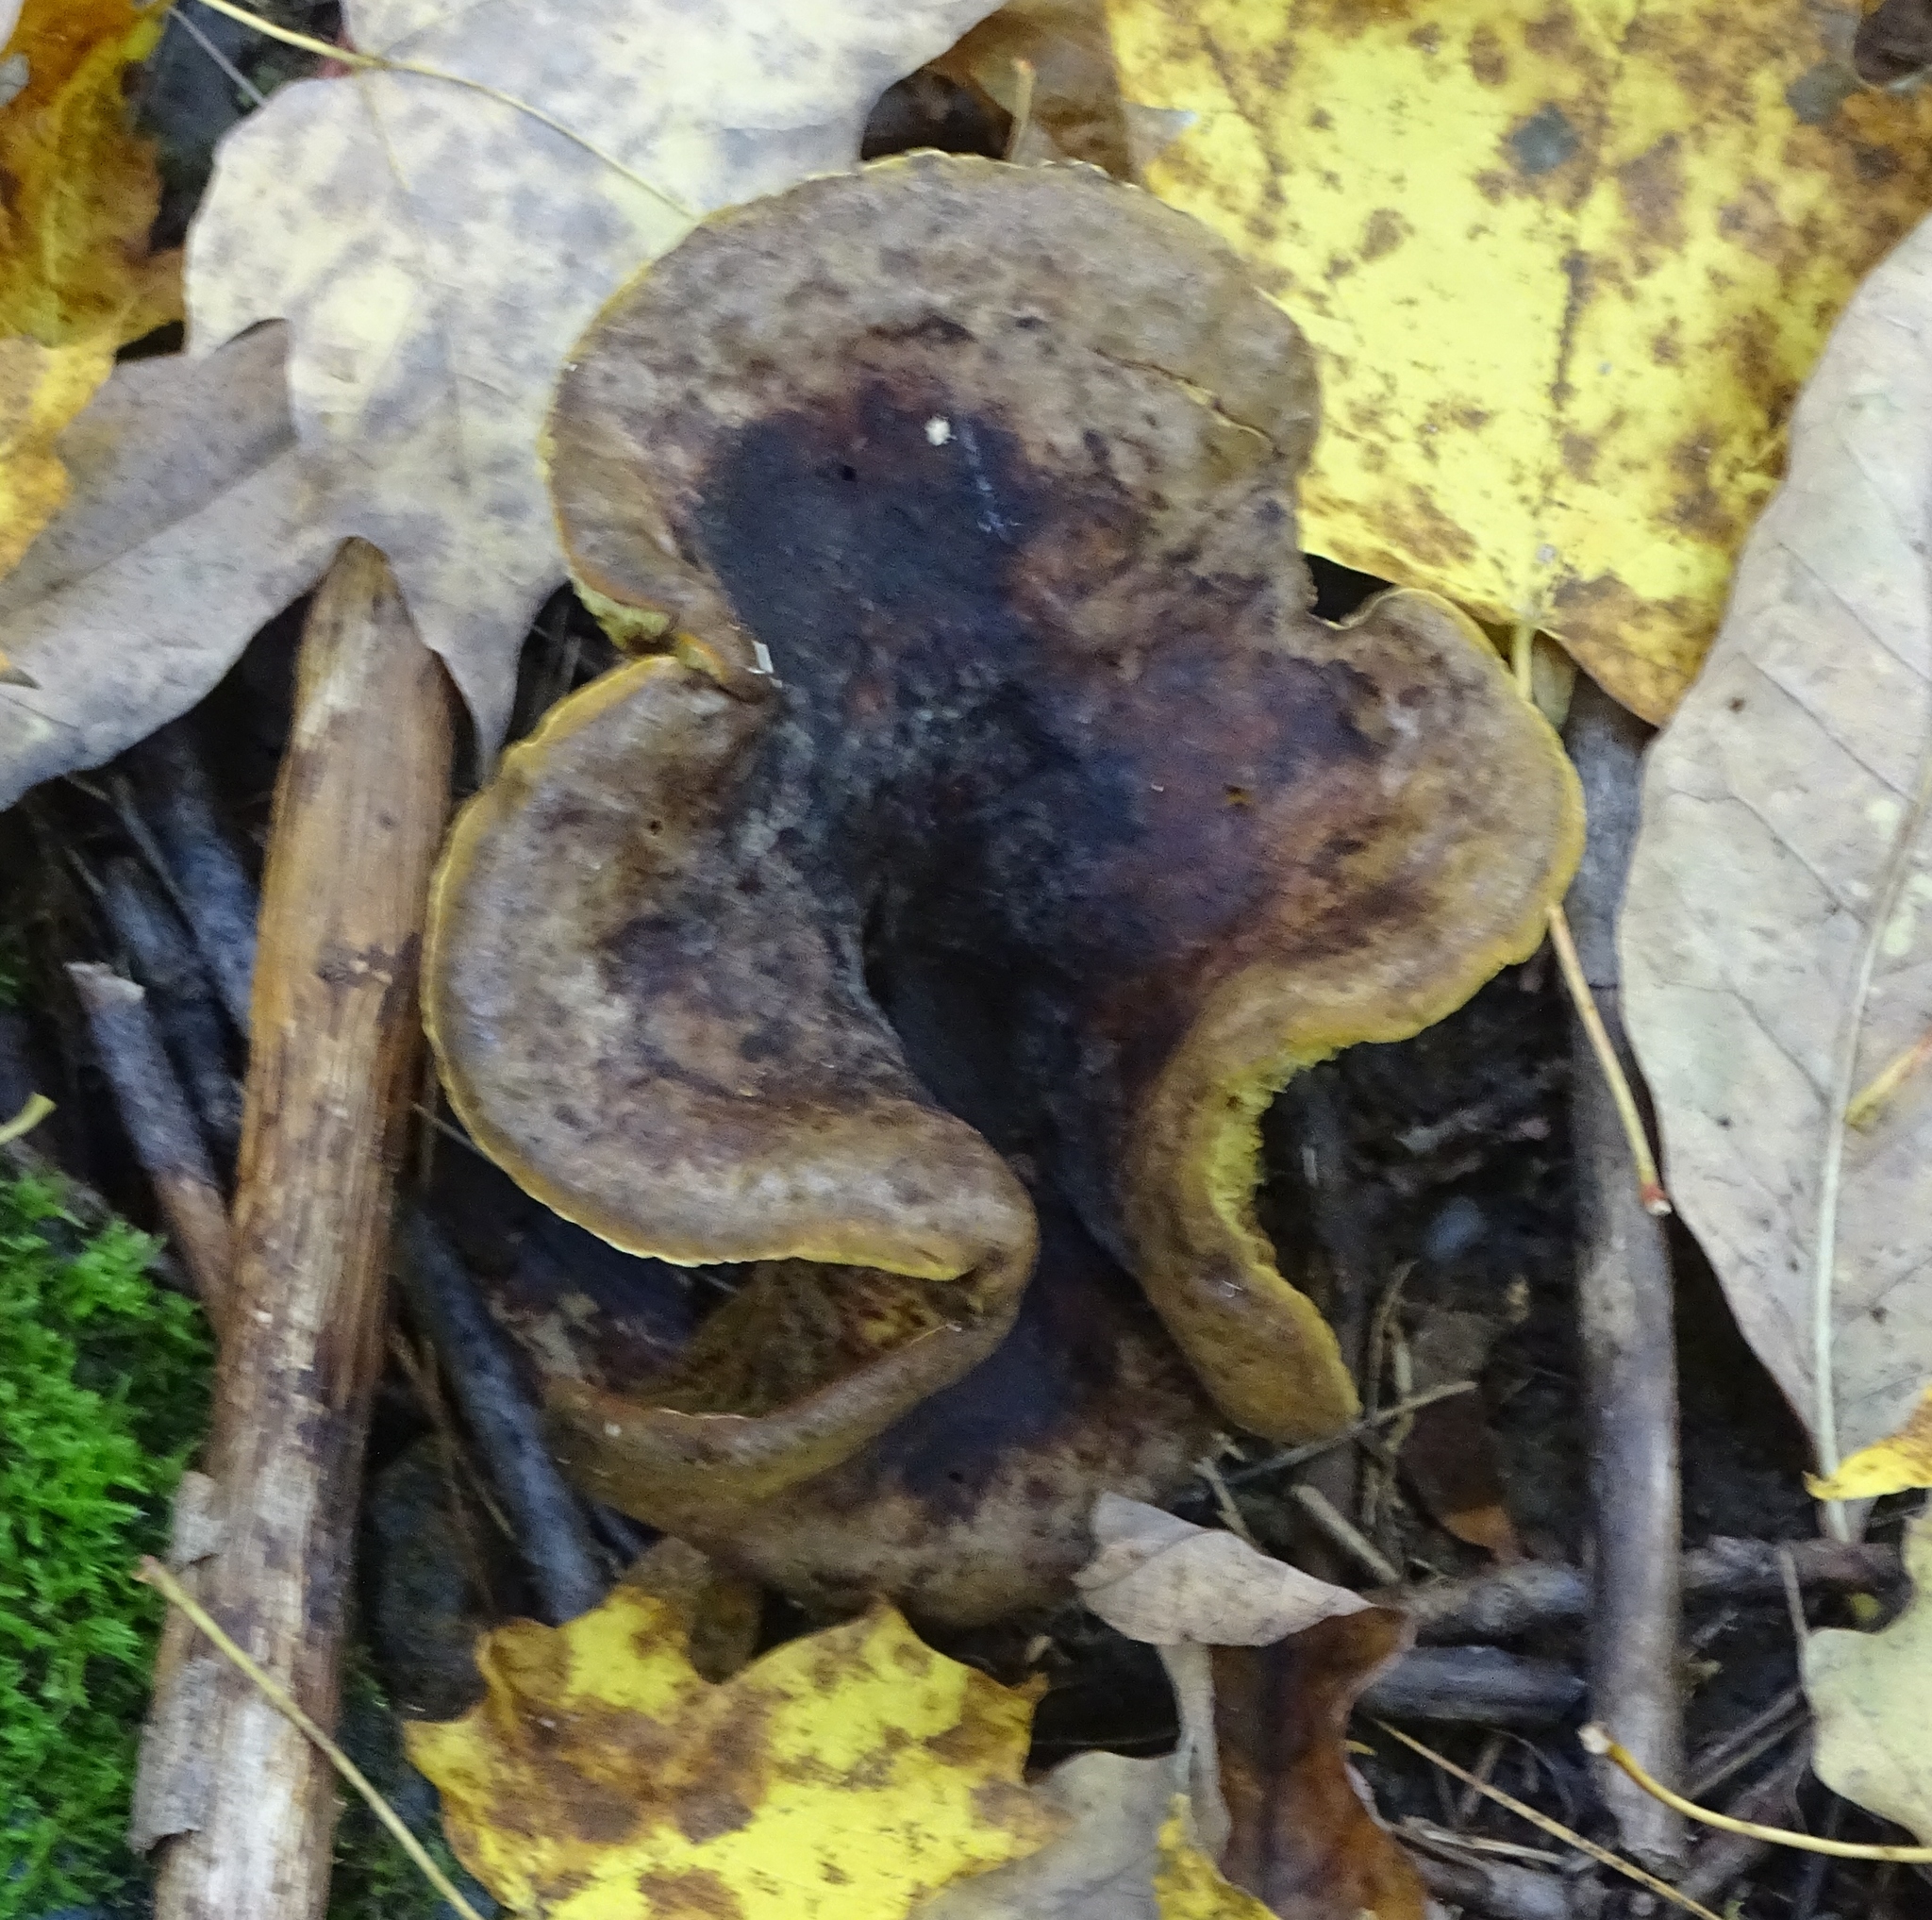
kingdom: Fungi
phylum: Basidiomycota
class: Agaricomycetes
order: Boletales
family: Boletinellaceae
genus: Boletinellus
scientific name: Boletinellus merulioides
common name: Ash tree bolete
